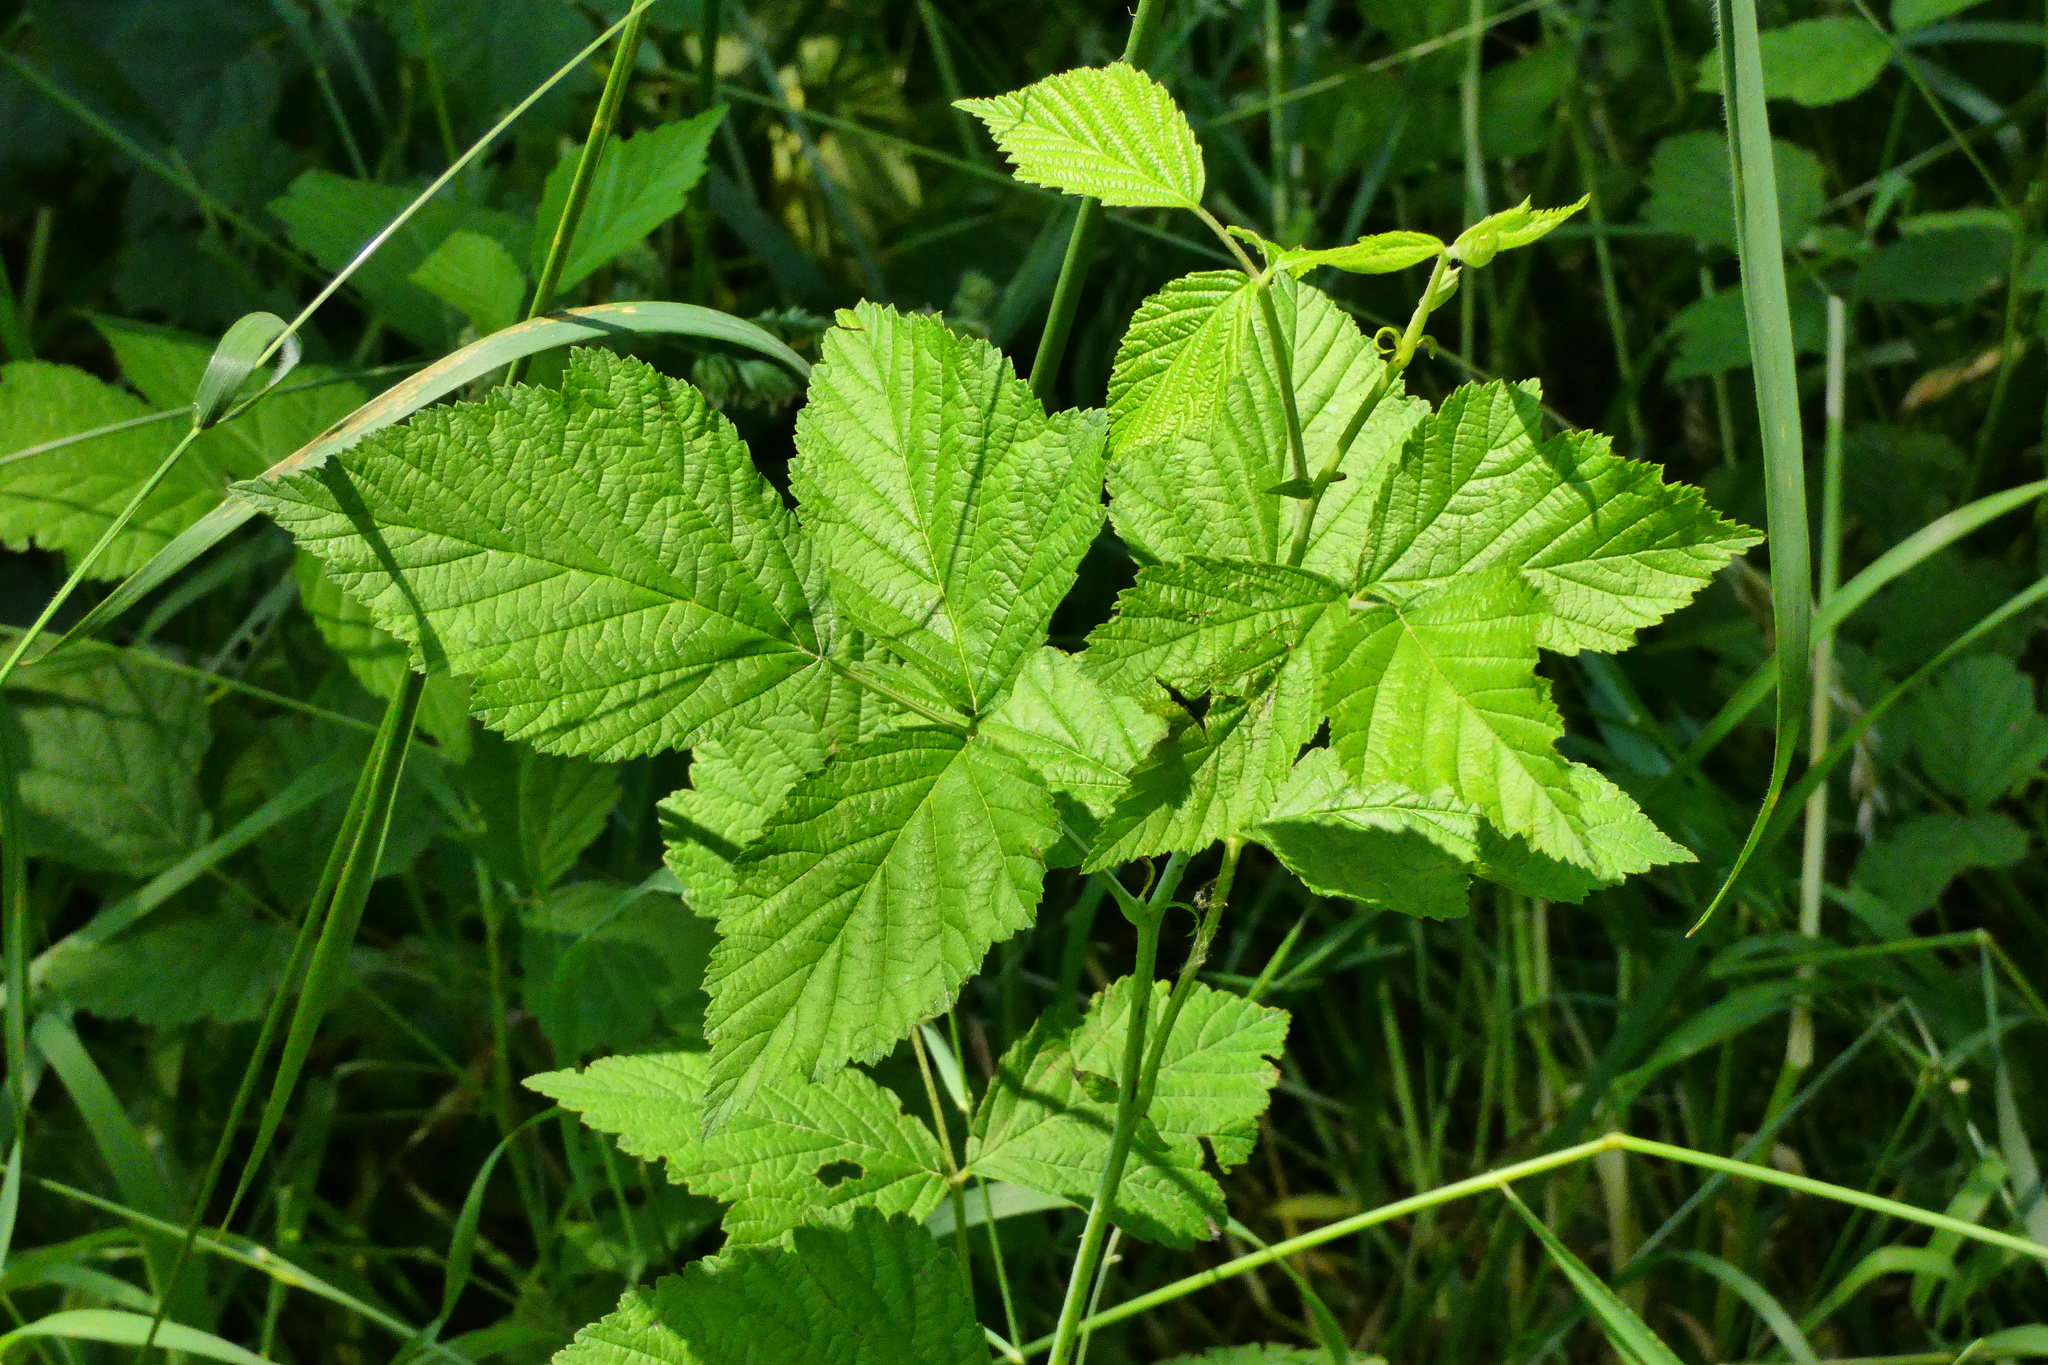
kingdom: Plantae
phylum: Tracheophyta
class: Magnoliopsida
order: Rosales
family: Rosaceae
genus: Rubus
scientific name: Rubus caesius
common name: Dewberry
